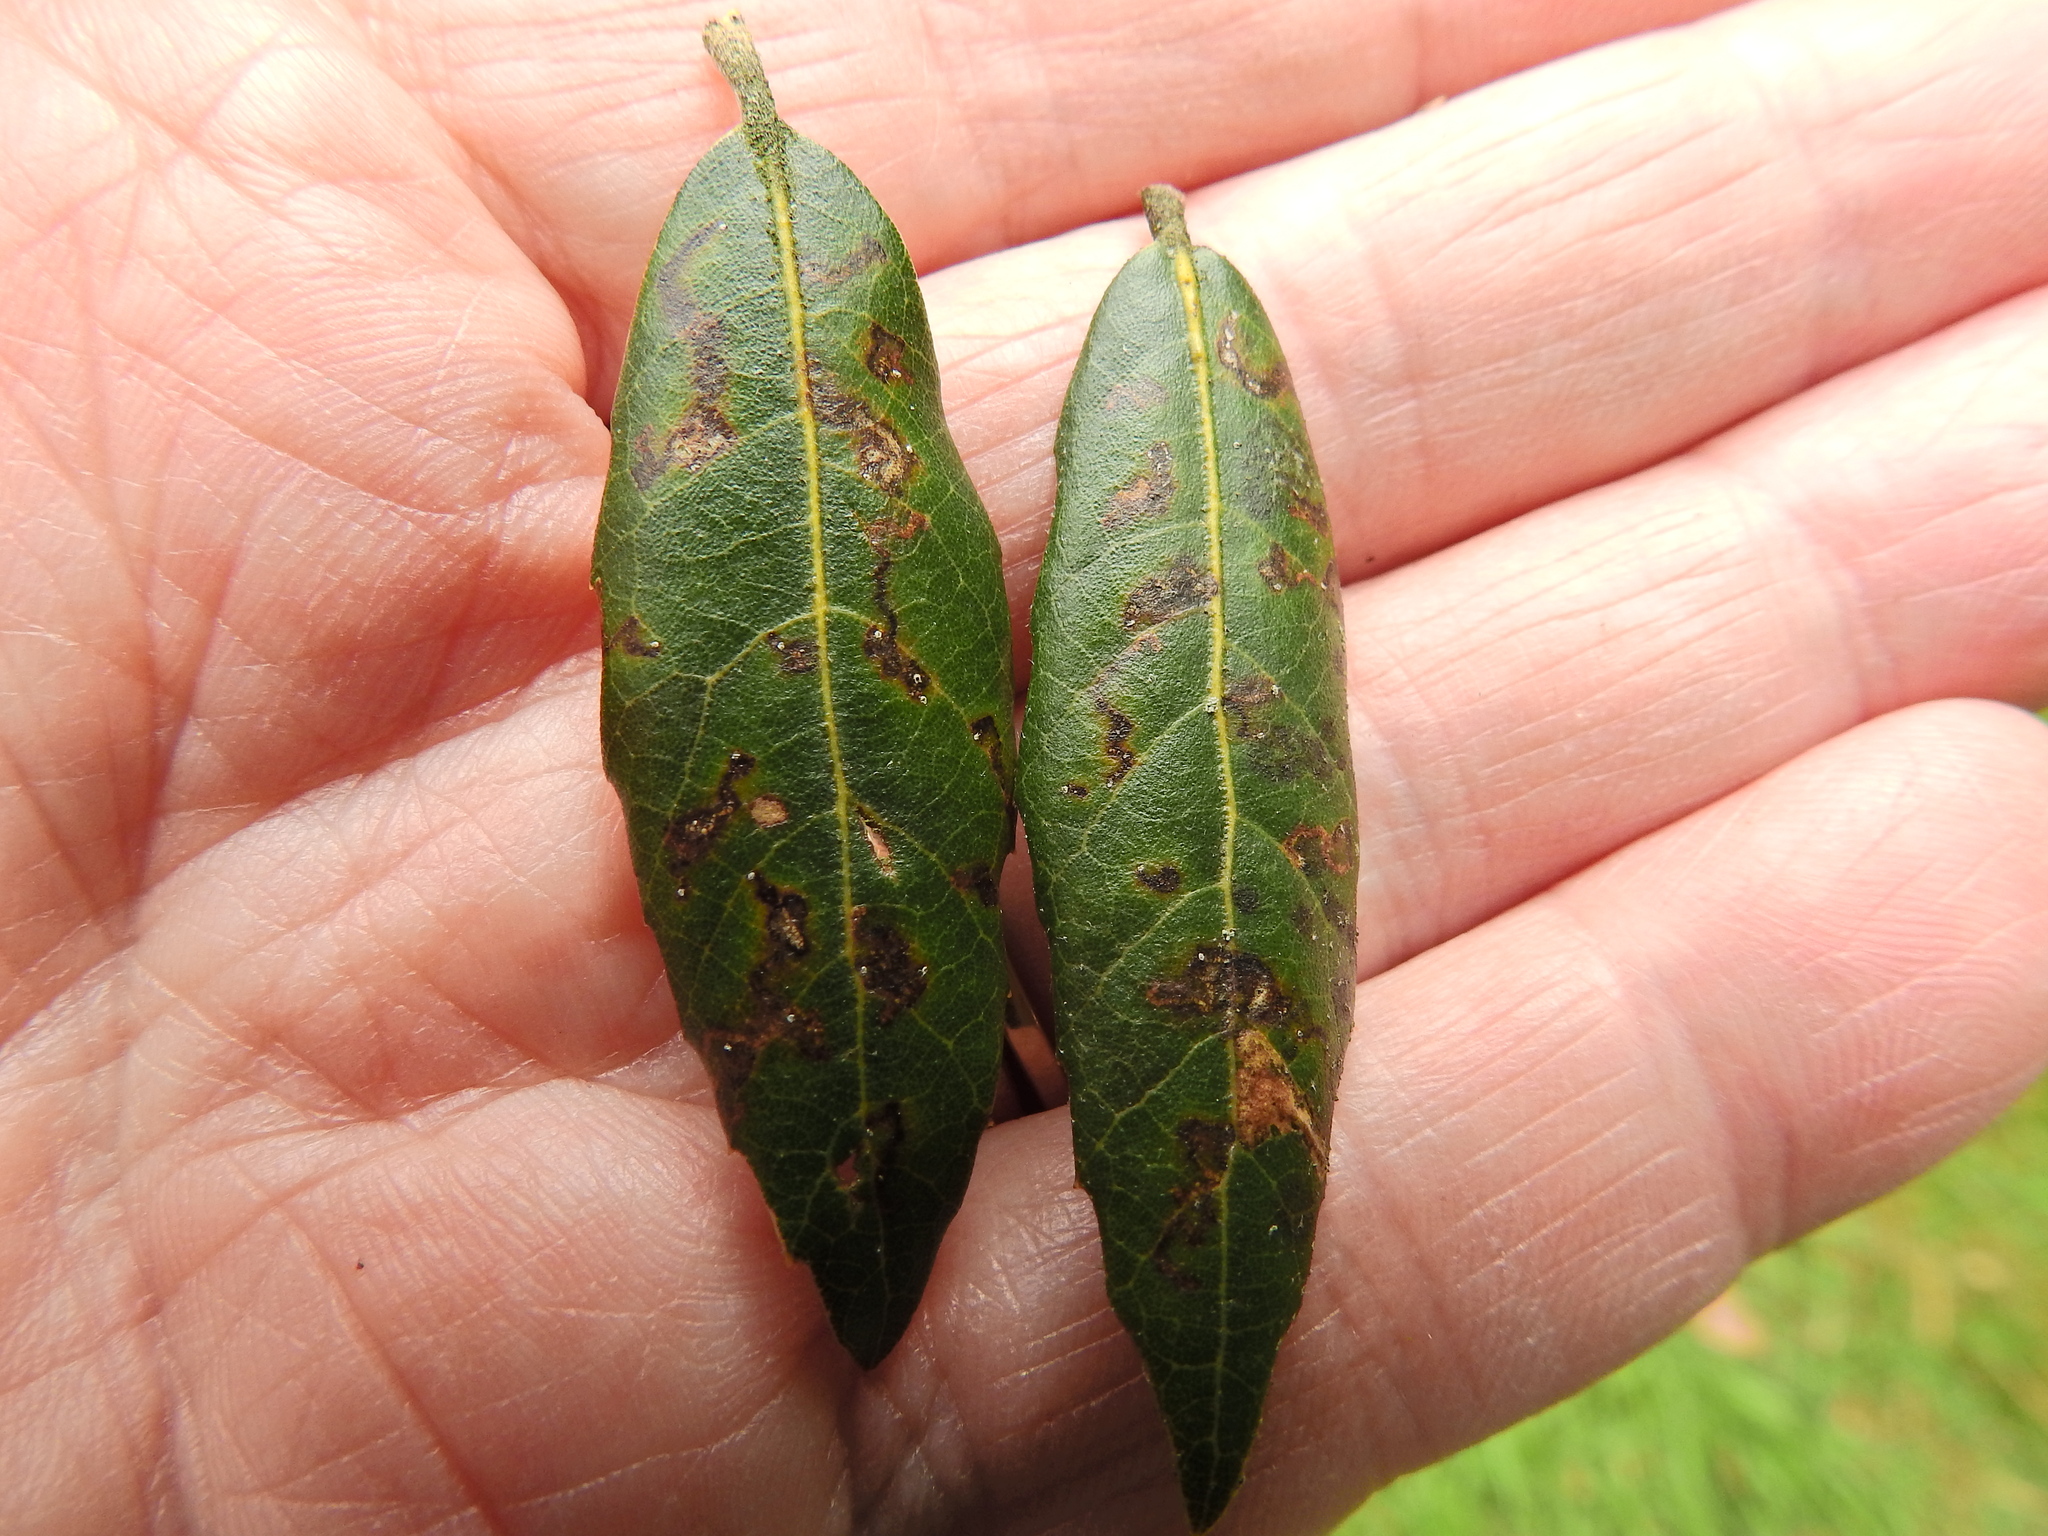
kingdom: Animalia
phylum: Arthropoda
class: Insecta
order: Lepidoptera
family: Nepticulidae
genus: Ectoedemia
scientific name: Ectoedemia heringella
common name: New holm-oak pigmy
